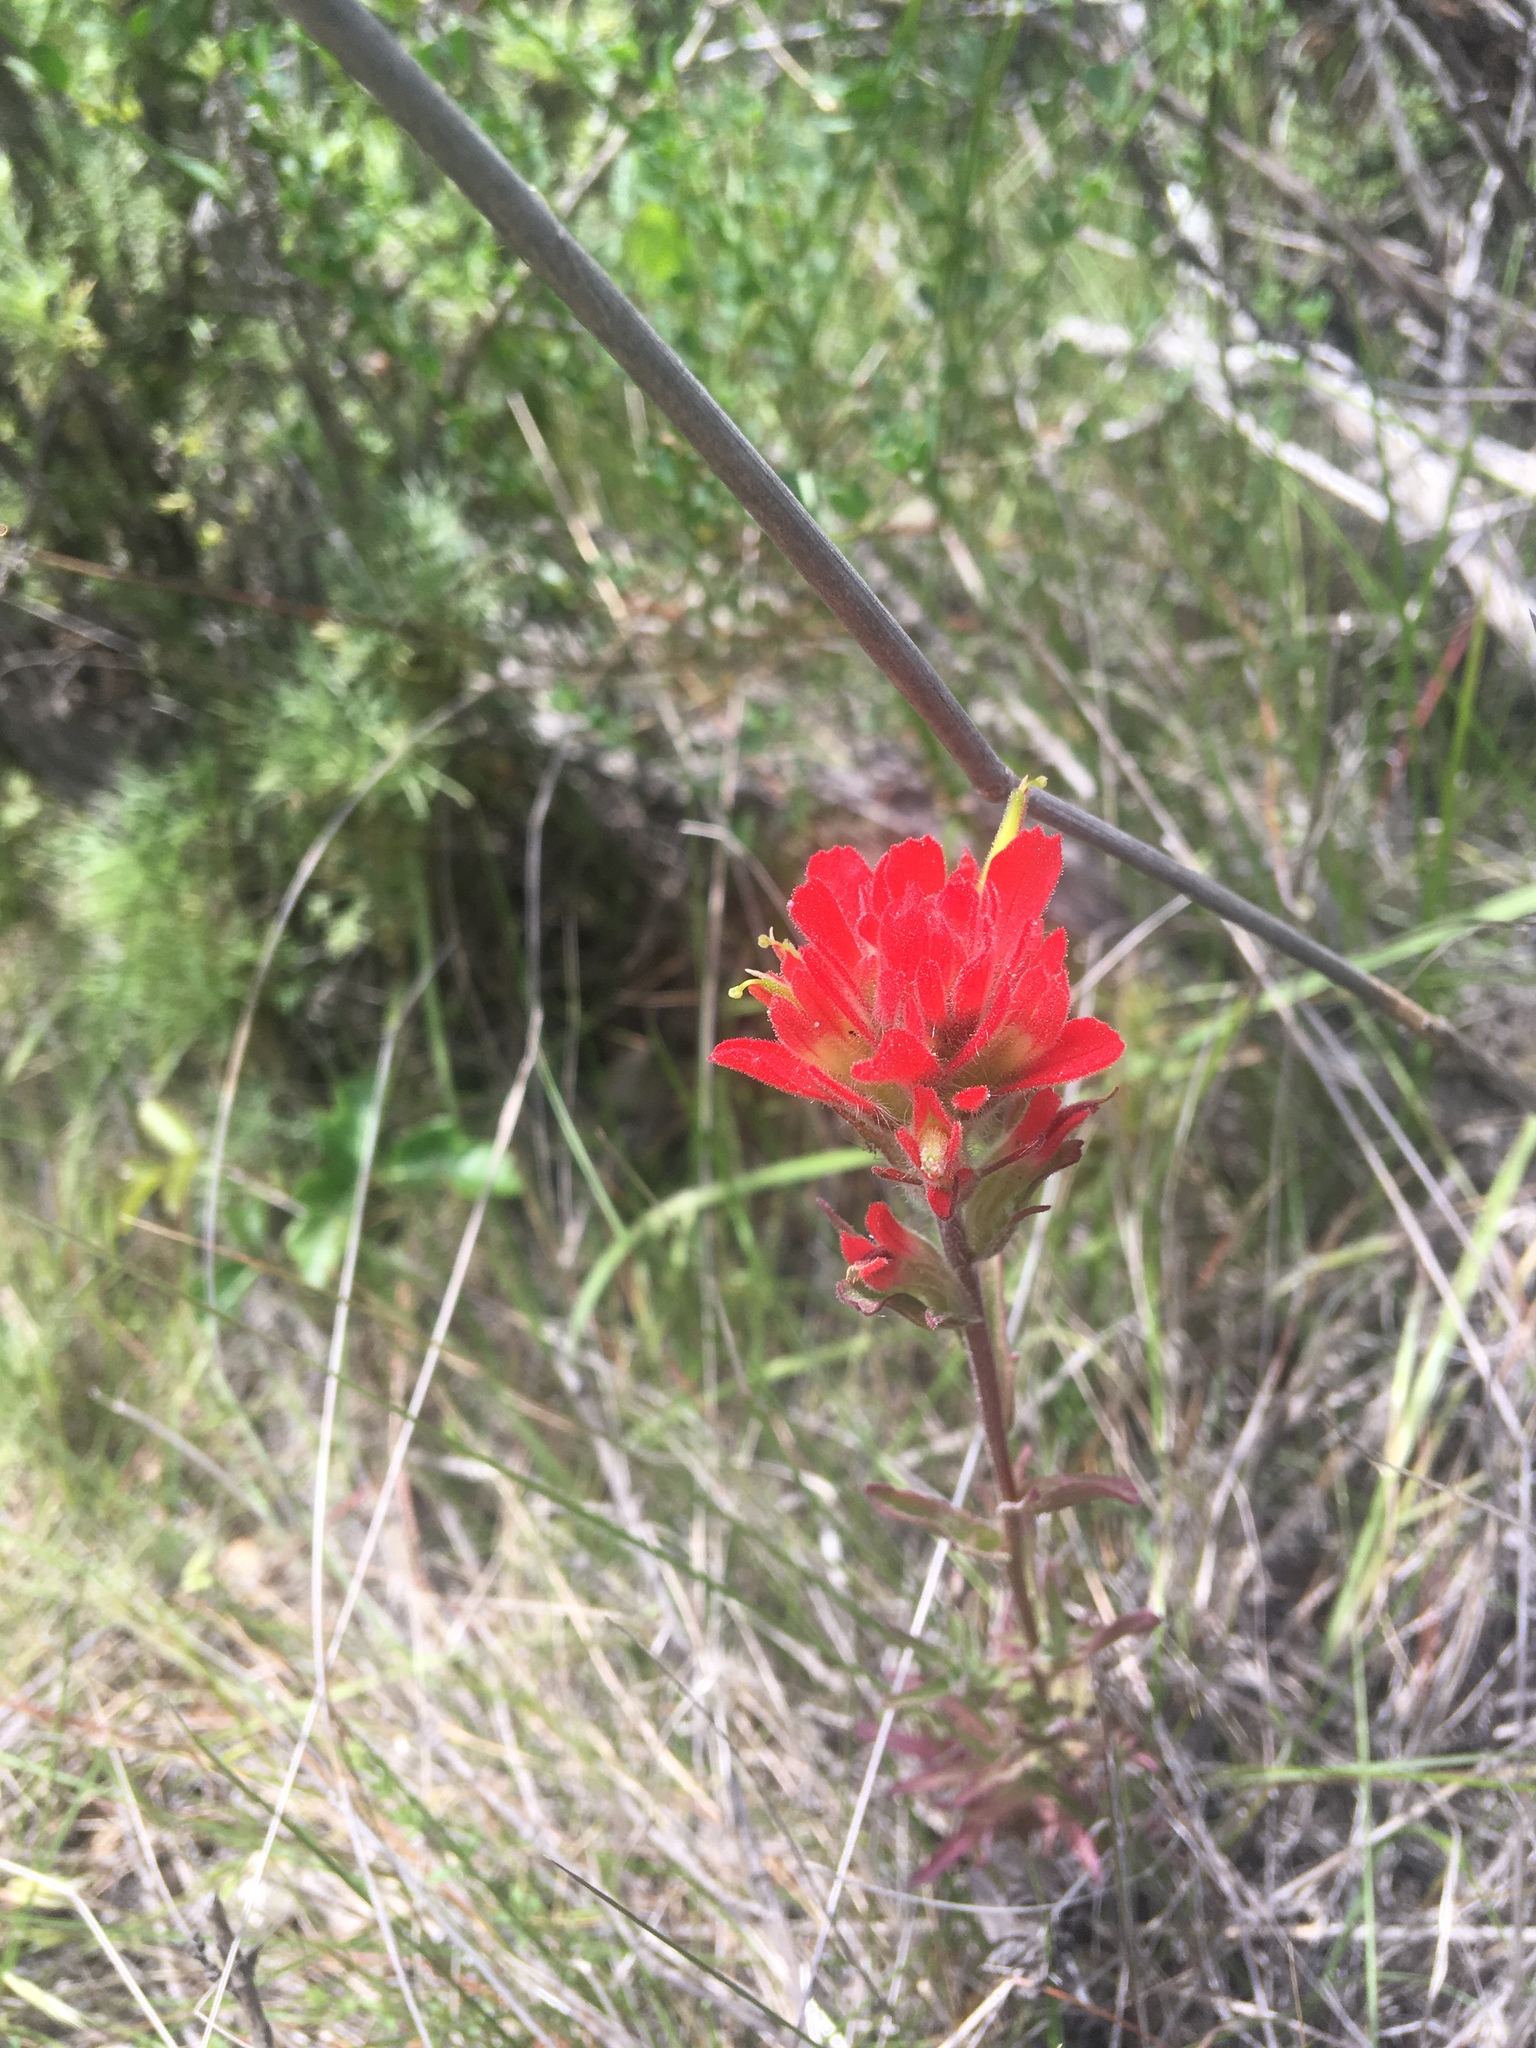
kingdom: Plantae
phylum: Tracheophyta
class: Magnoliopsida
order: Lamiales
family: Orobanchaceae
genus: Castilleja
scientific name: Castilleja affinis
